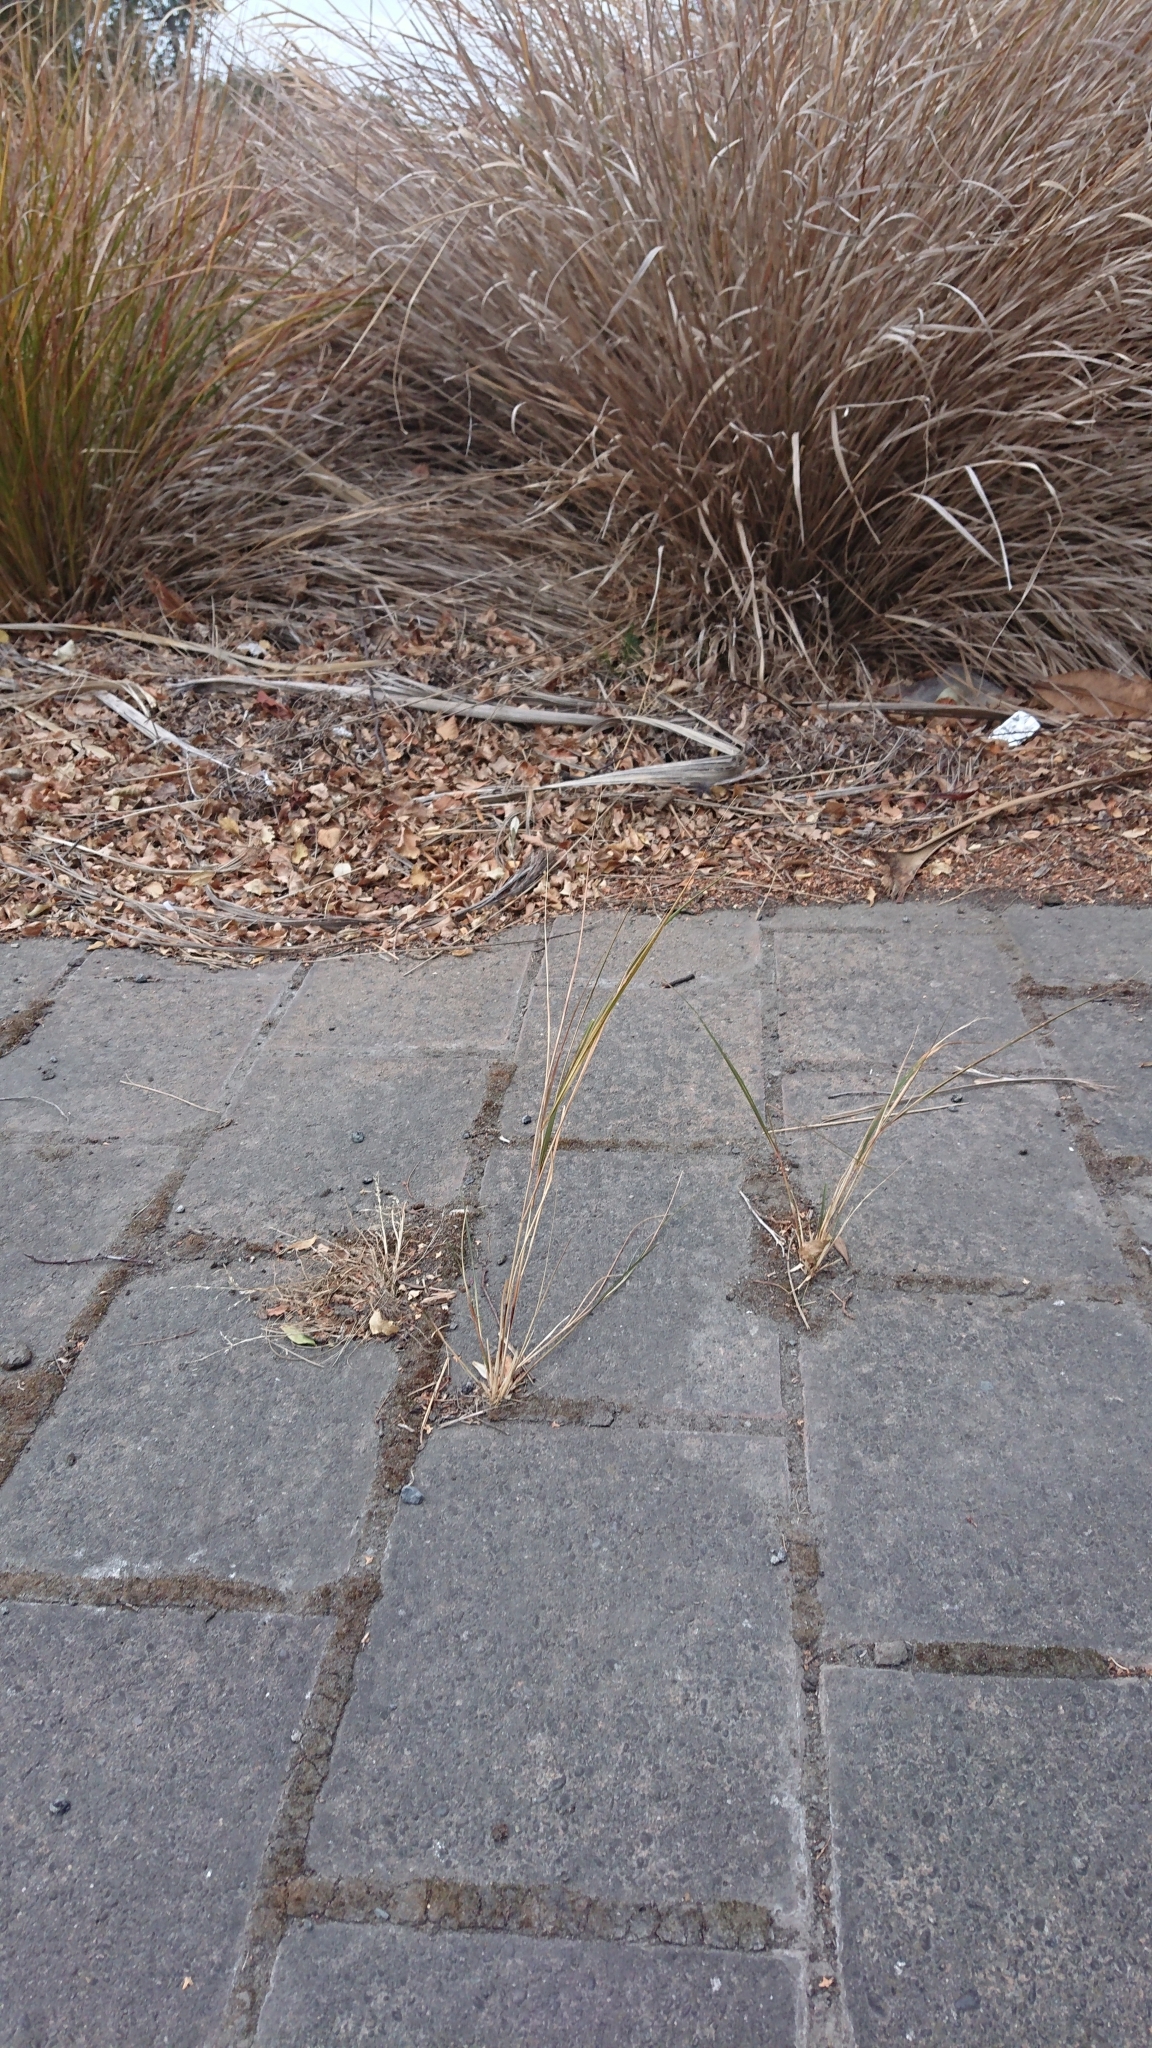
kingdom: Plantae
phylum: Tracheophyta
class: Liliopsida
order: Poales
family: Poaceae
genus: Anemanthele
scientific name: Anemanthele lessoniana
